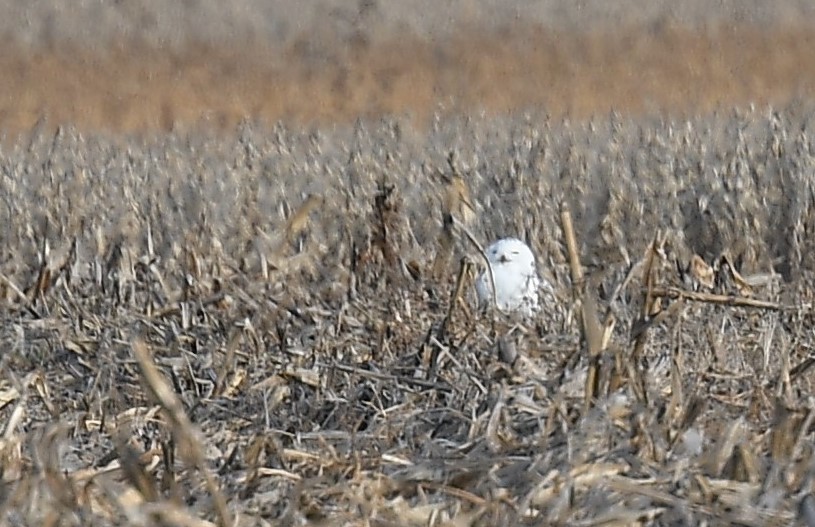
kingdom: Animalia
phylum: Chordata
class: Aves
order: Strigiformes
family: Strigidae
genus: Bubo
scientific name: Bubo scandiacus
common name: Snowy owl
